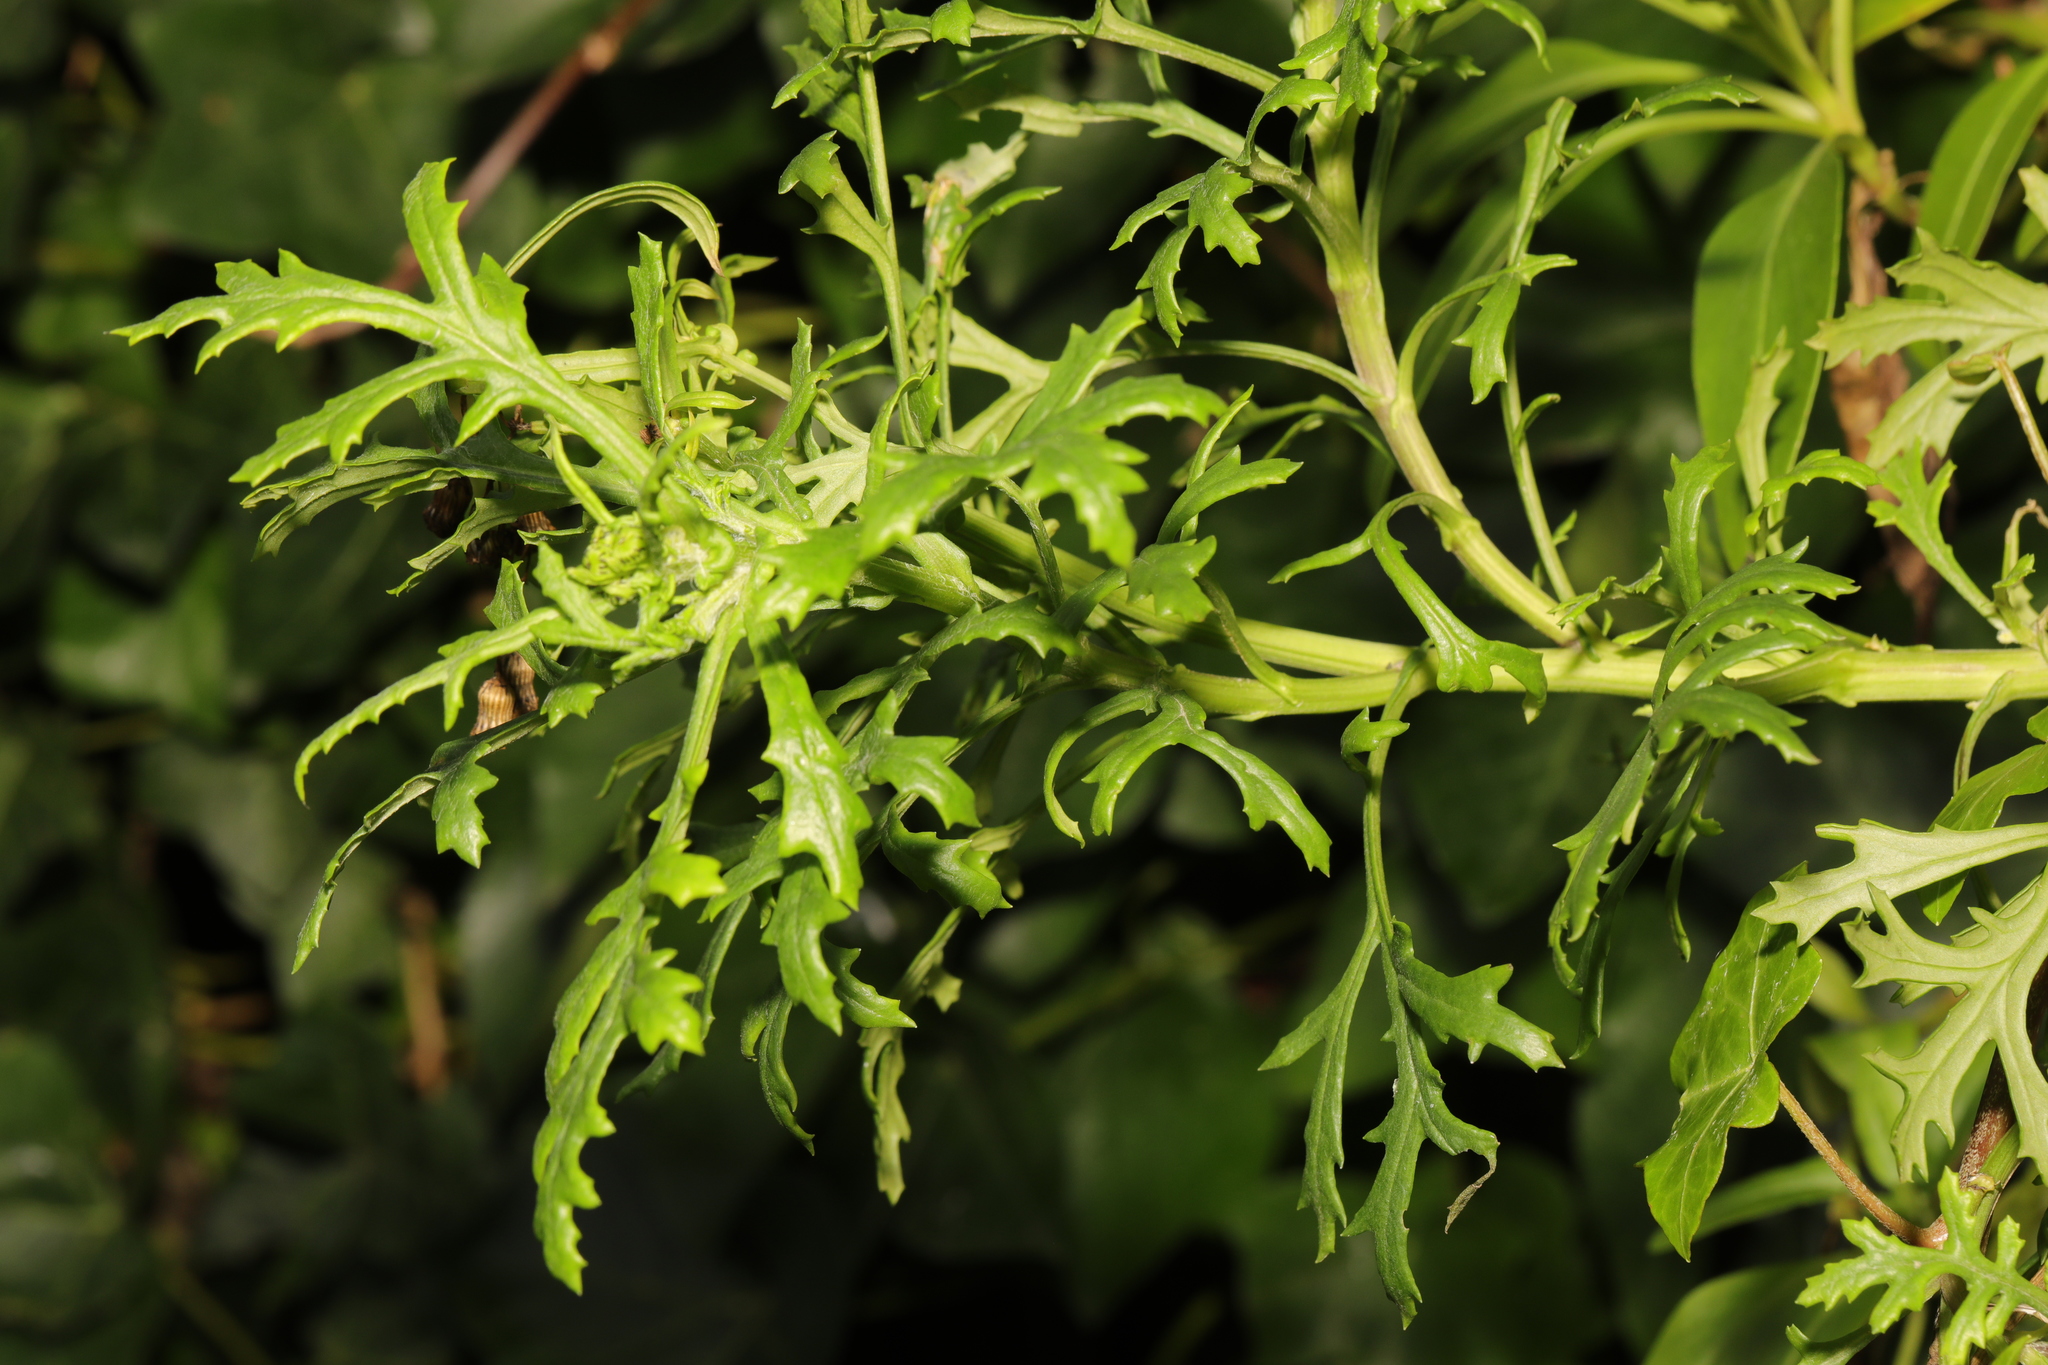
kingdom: Plantae
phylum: Tracheophyta
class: Magnoliopsida
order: Asterales
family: Asteraceae
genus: Senecio
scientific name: Senecio squalidus
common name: Oxford ragwort
